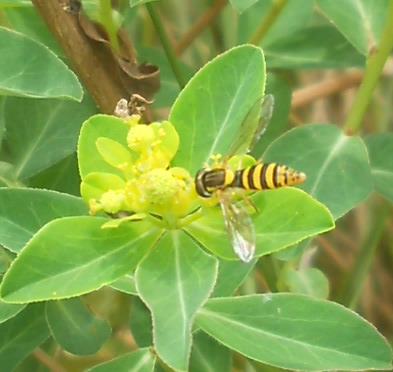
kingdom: Animalia
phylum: Arthropoda
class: Insecta
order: Diptera
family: Syrphidae
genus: Sphaerophoria
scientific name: Sphaerophoria
